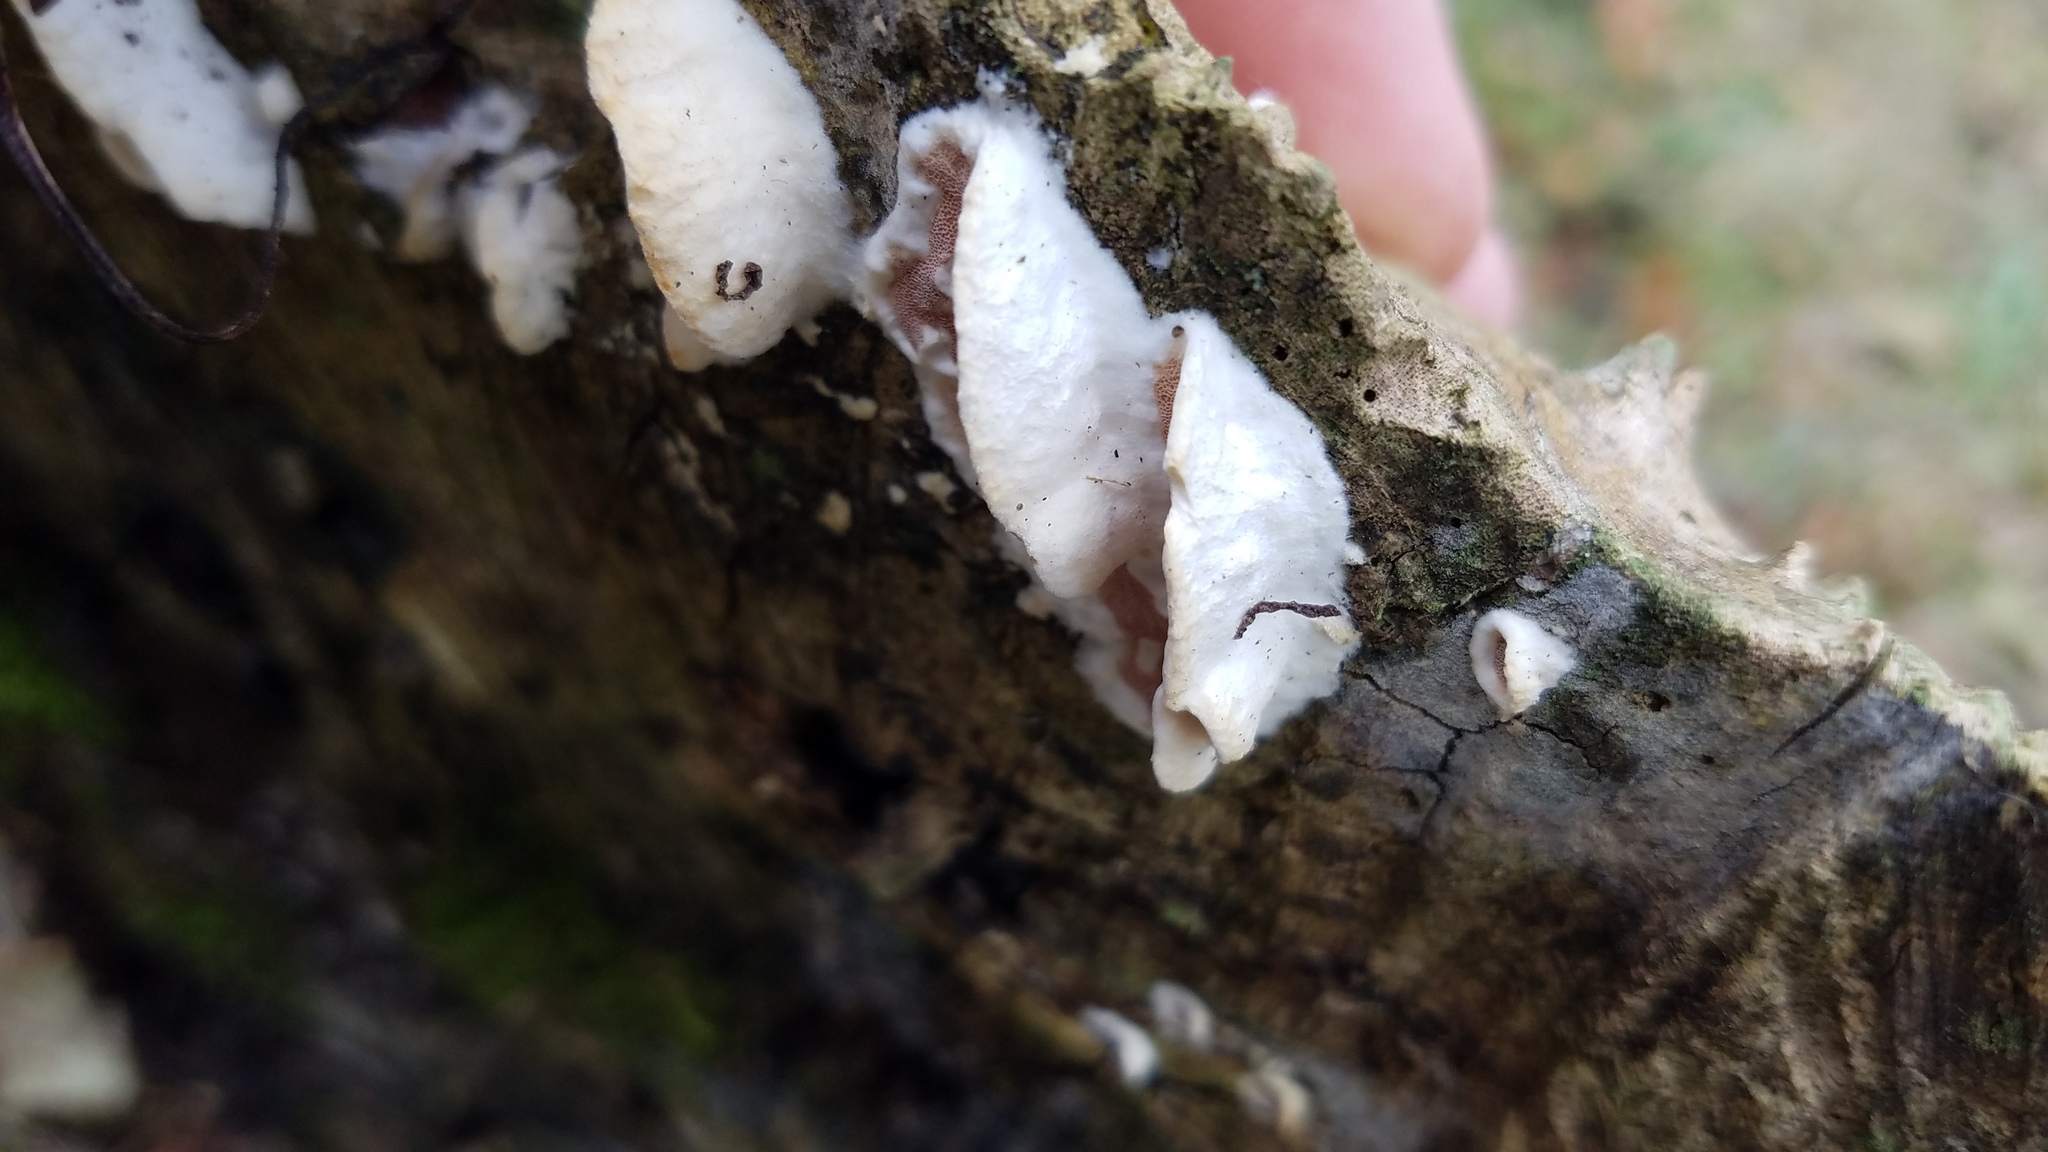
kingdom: Fungi
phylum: Basidiomycota
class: Agaricomycetes
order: Polyporales
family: Irpicaceae
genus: Vitreoporus
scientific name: Vitreoporus dichrous
